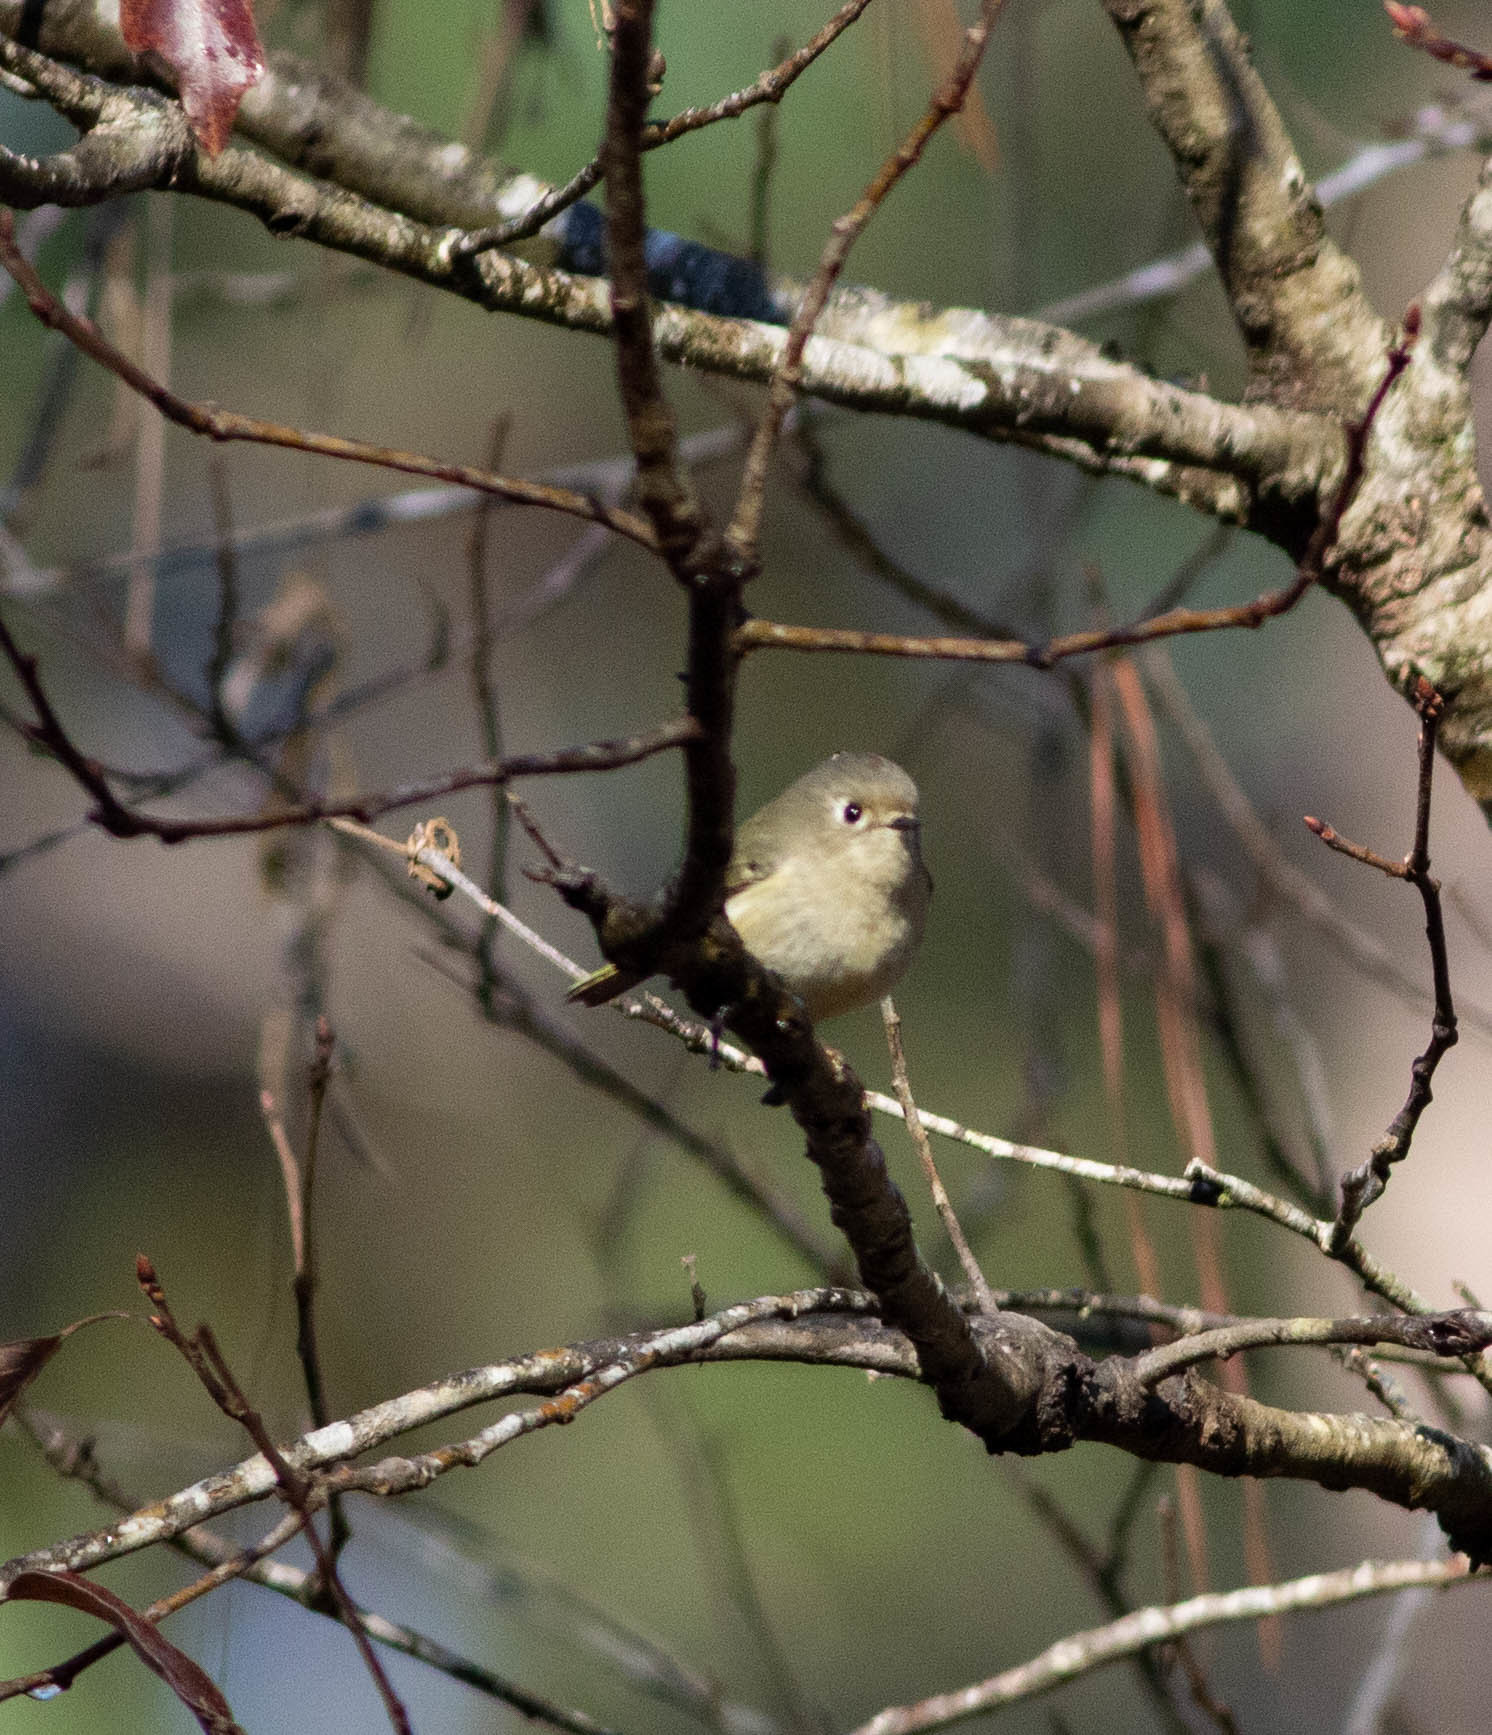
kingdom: Animalia
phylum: Chordata
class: Aves
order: Passeriformes
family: Regulidae
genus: Regulus
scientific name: Regulus calendula
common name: Ruby-crowned kinglet
